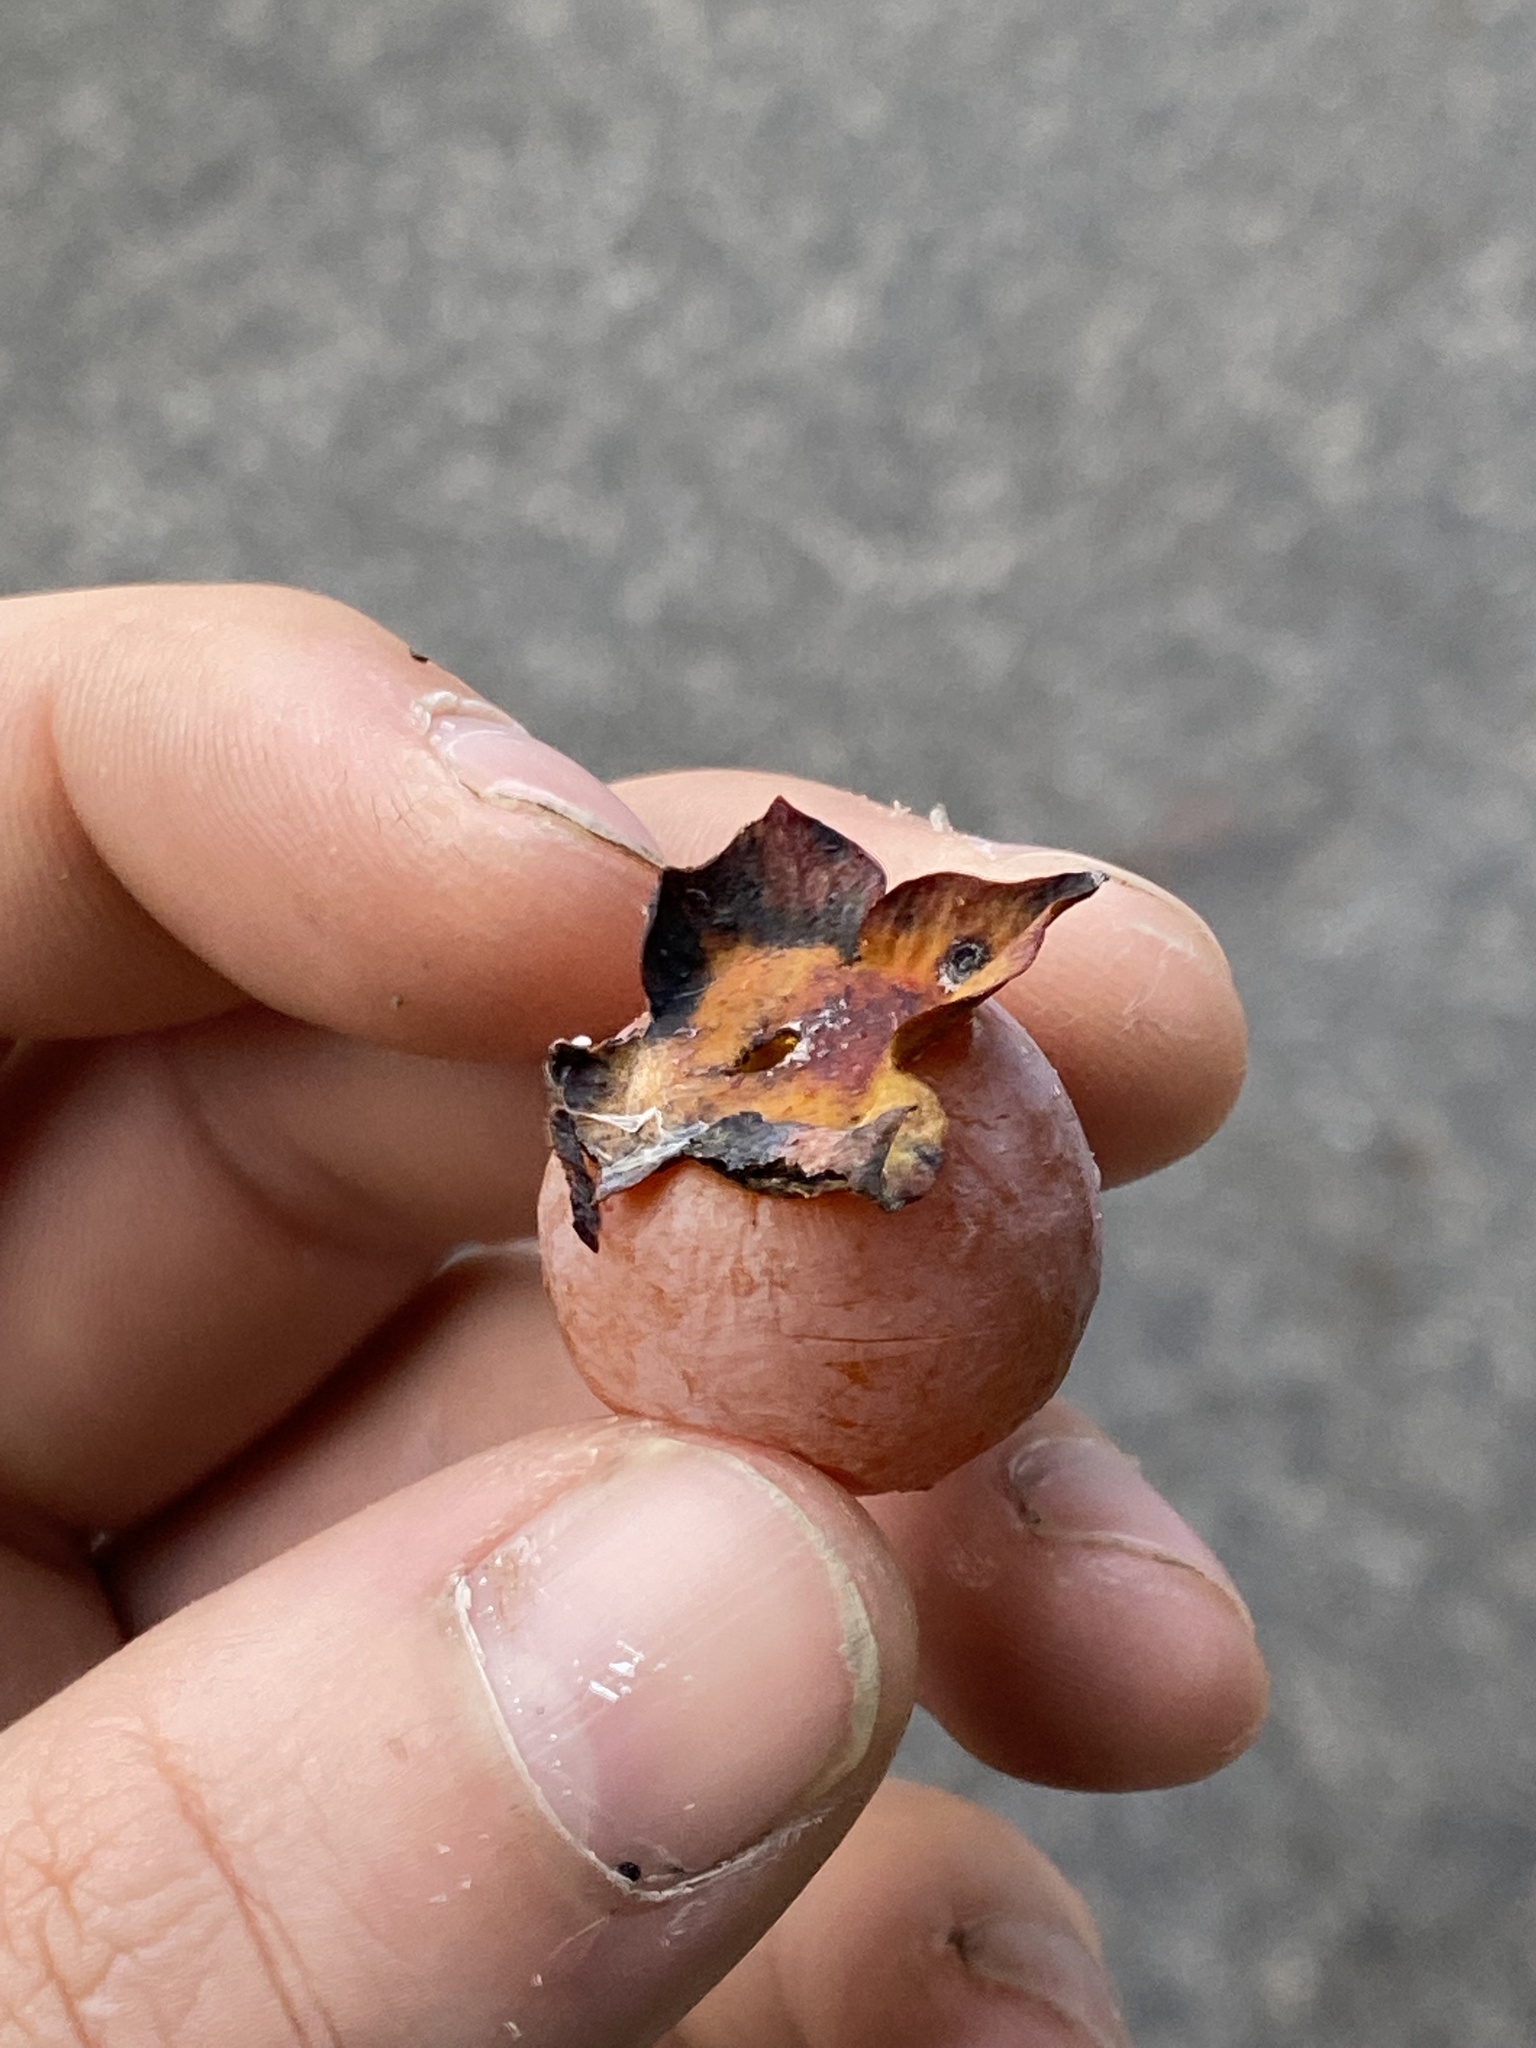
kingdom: Plantae
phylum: Tracheophyta
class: Magnoliopsida
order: Ericales
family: Ebenaceae
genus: Diospyros
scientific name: Diospyros virginiana
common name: Persimmon
